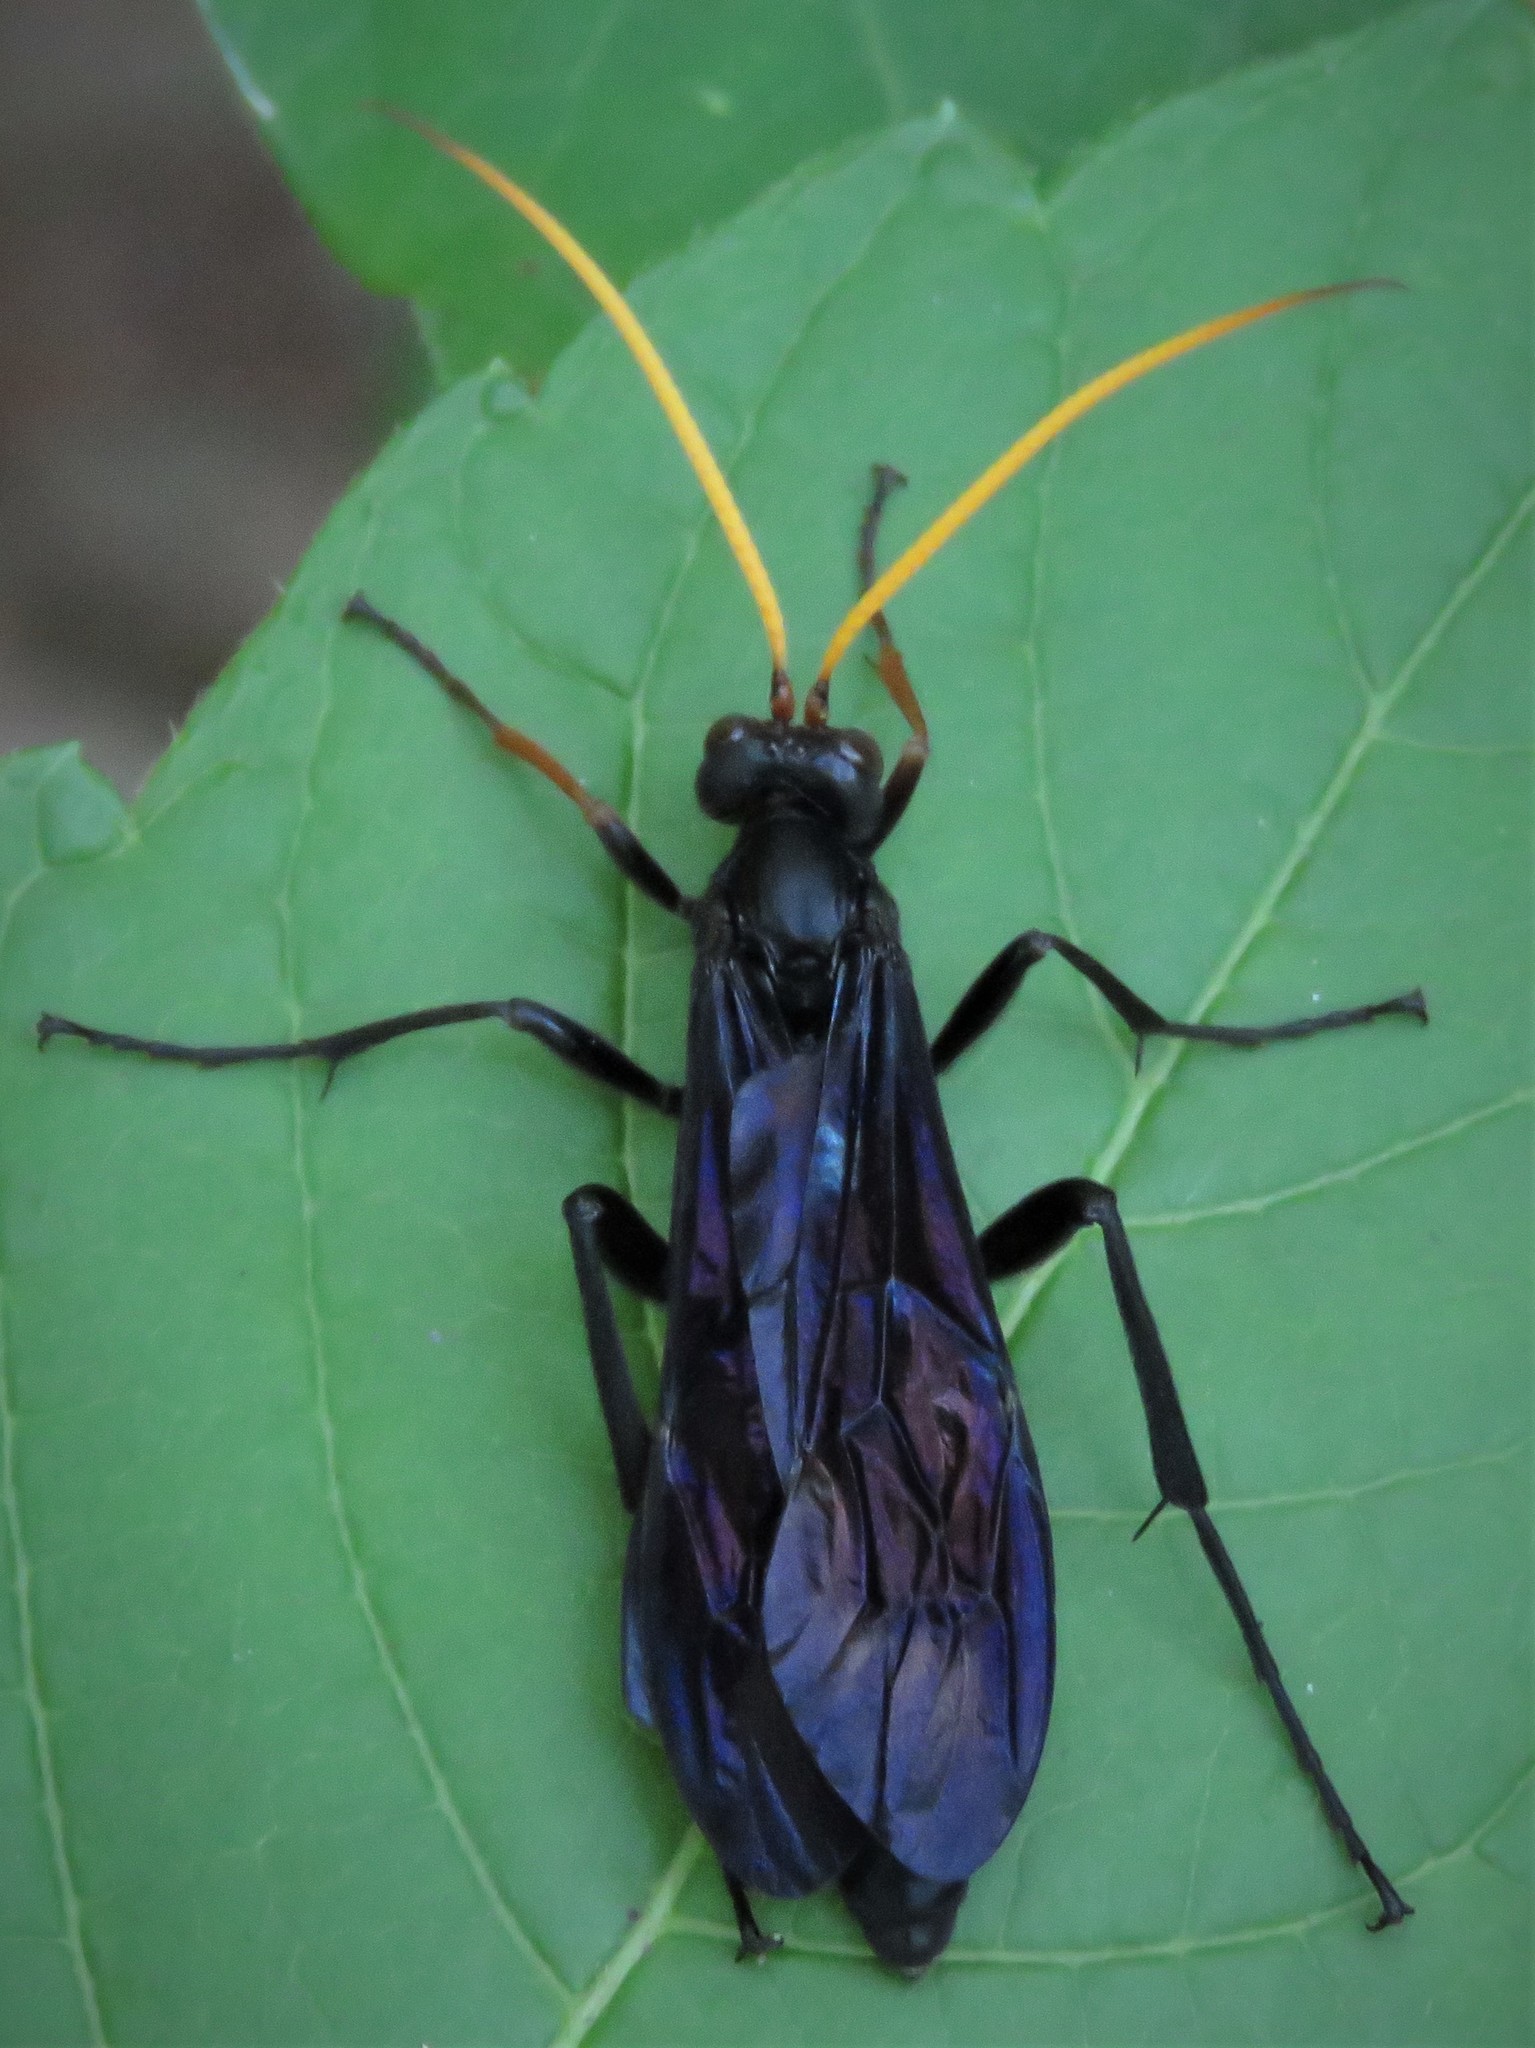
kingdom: Animalia
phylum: Arthropoda
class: Insecta
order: Hymenoptera
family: Ichneumonidae
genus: Gnamptopelta
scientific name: Gnamptopelta obsidianator
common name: Bent-shielded besieger wasp
